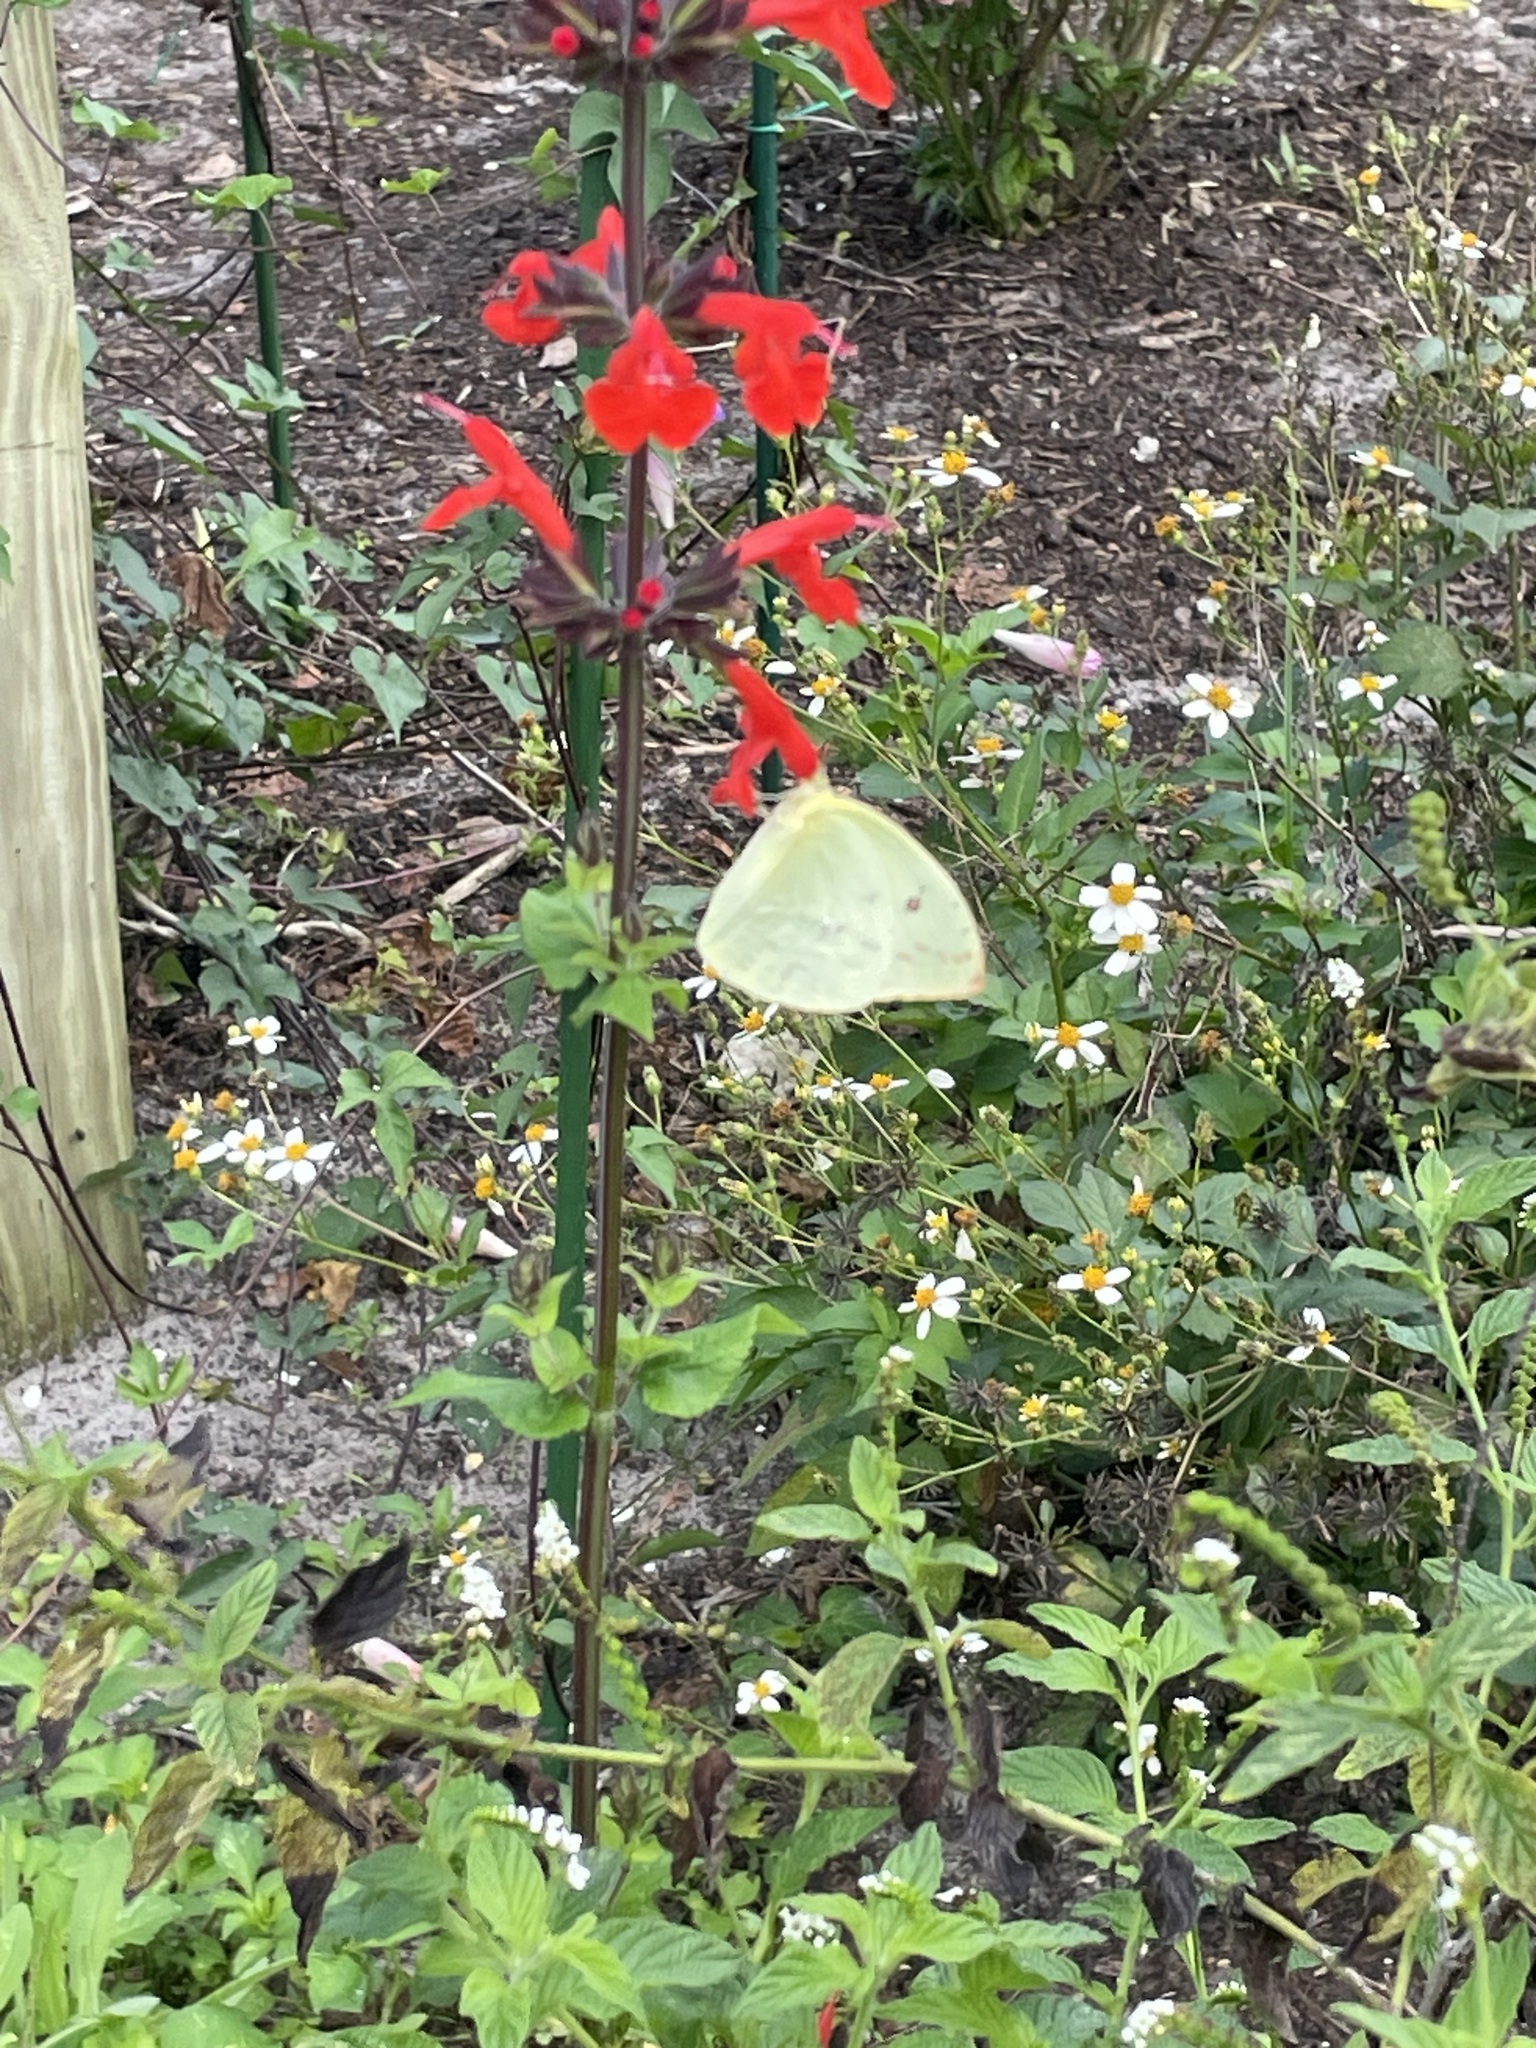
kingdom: Animalia
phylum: Arthropoda
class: Insecta
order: Lepidoptera
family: Pieridae
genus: Aphrissa
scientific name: Aphrissa statira
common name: Statira sulphur
